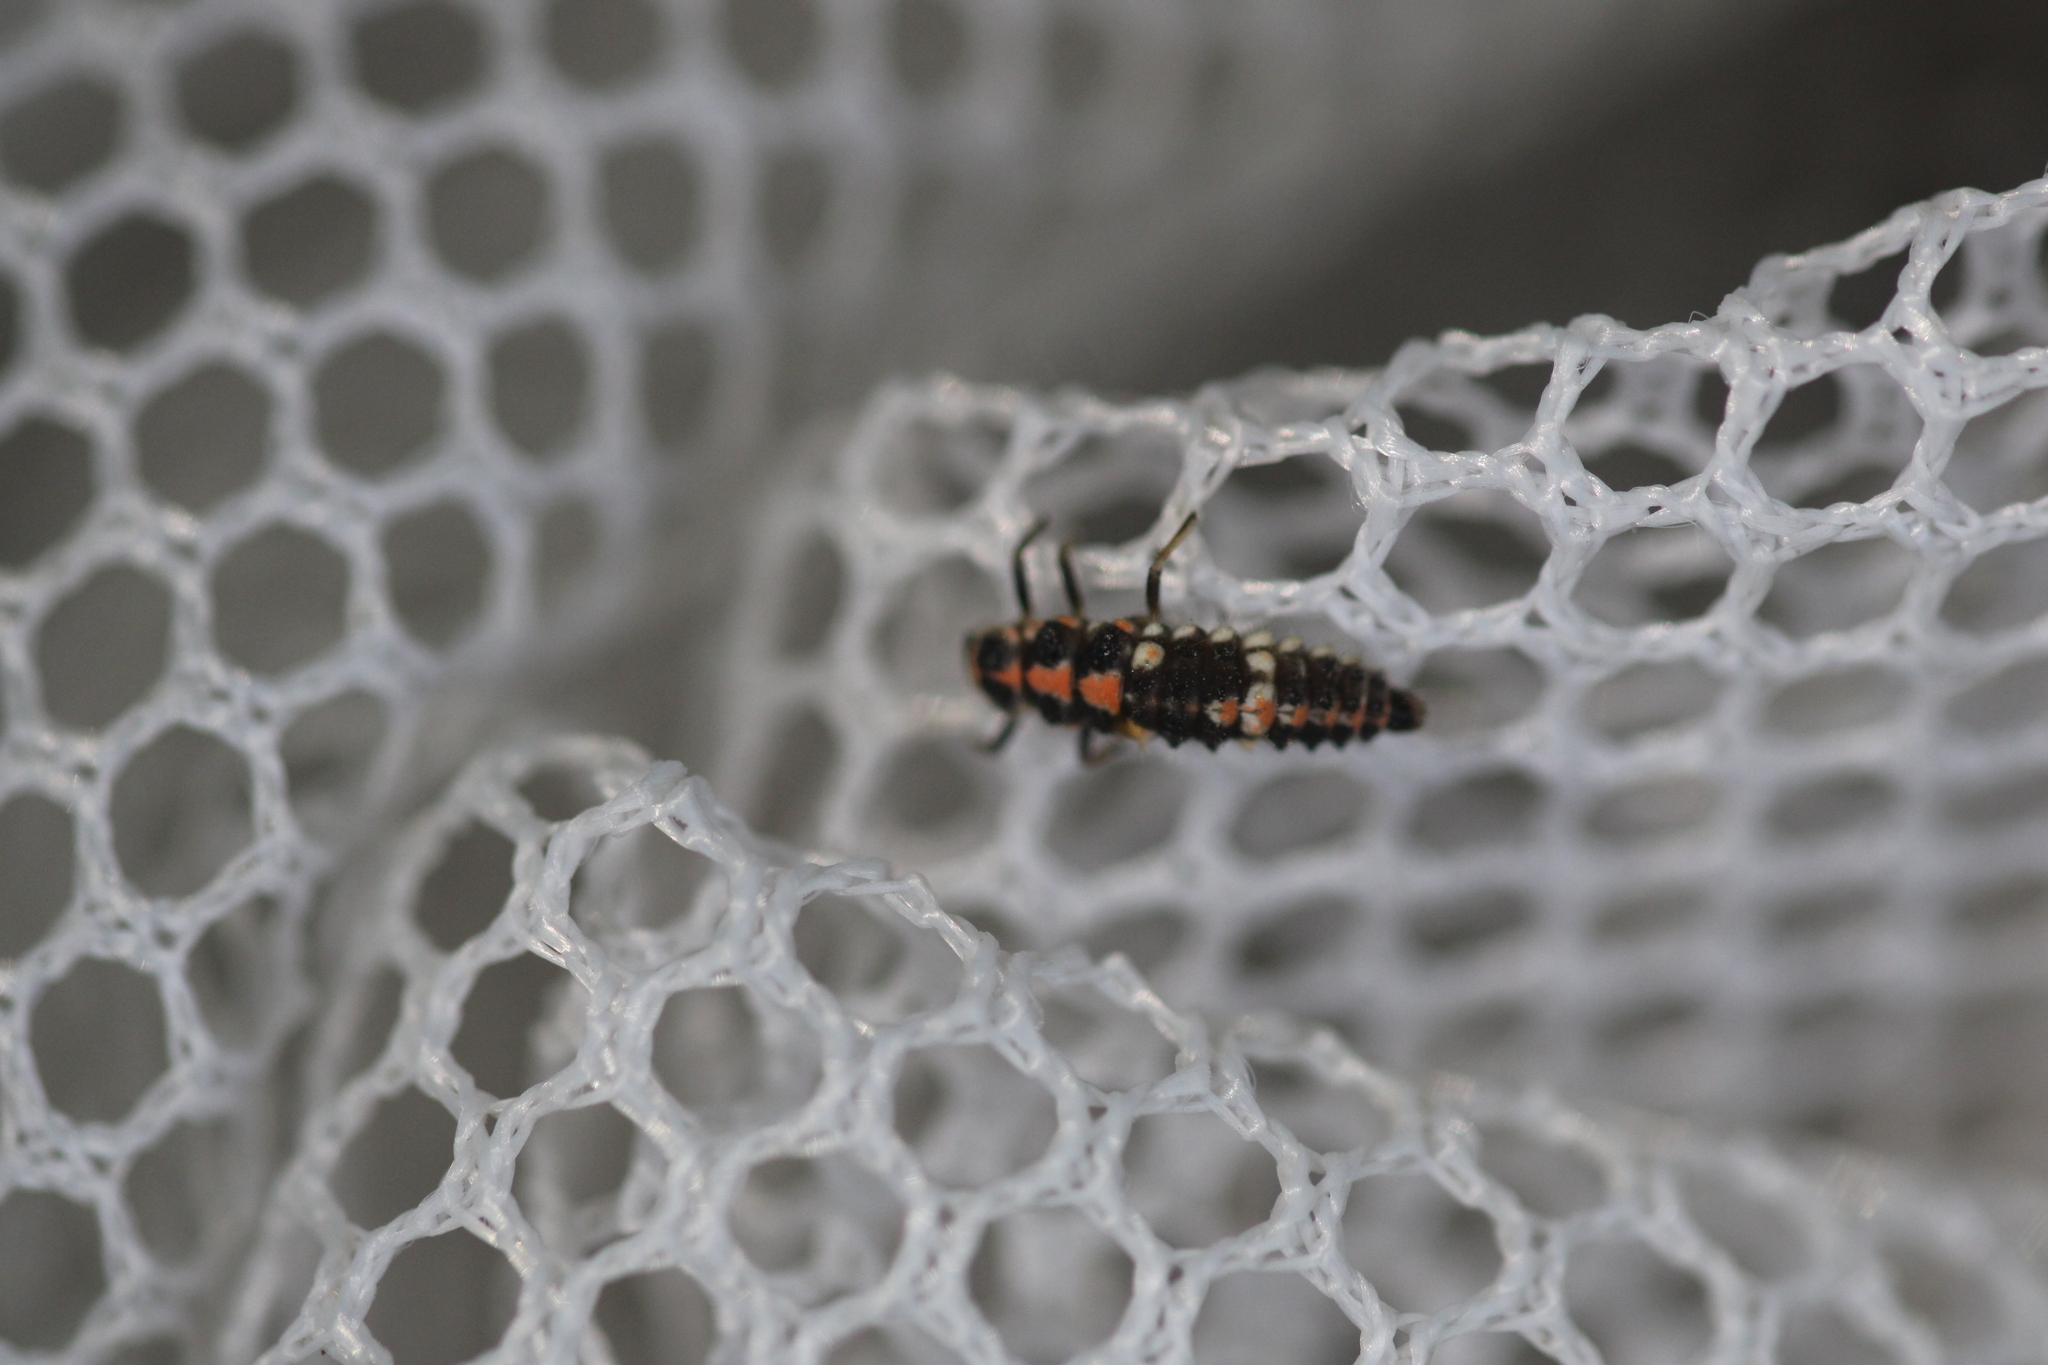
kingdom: Animalia
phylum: Arthropoda
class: Insecta
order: Coleoptera
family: Coccinellidae
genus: Oenopia
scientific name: Oenopia conglobata
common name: Ladybird beetle
